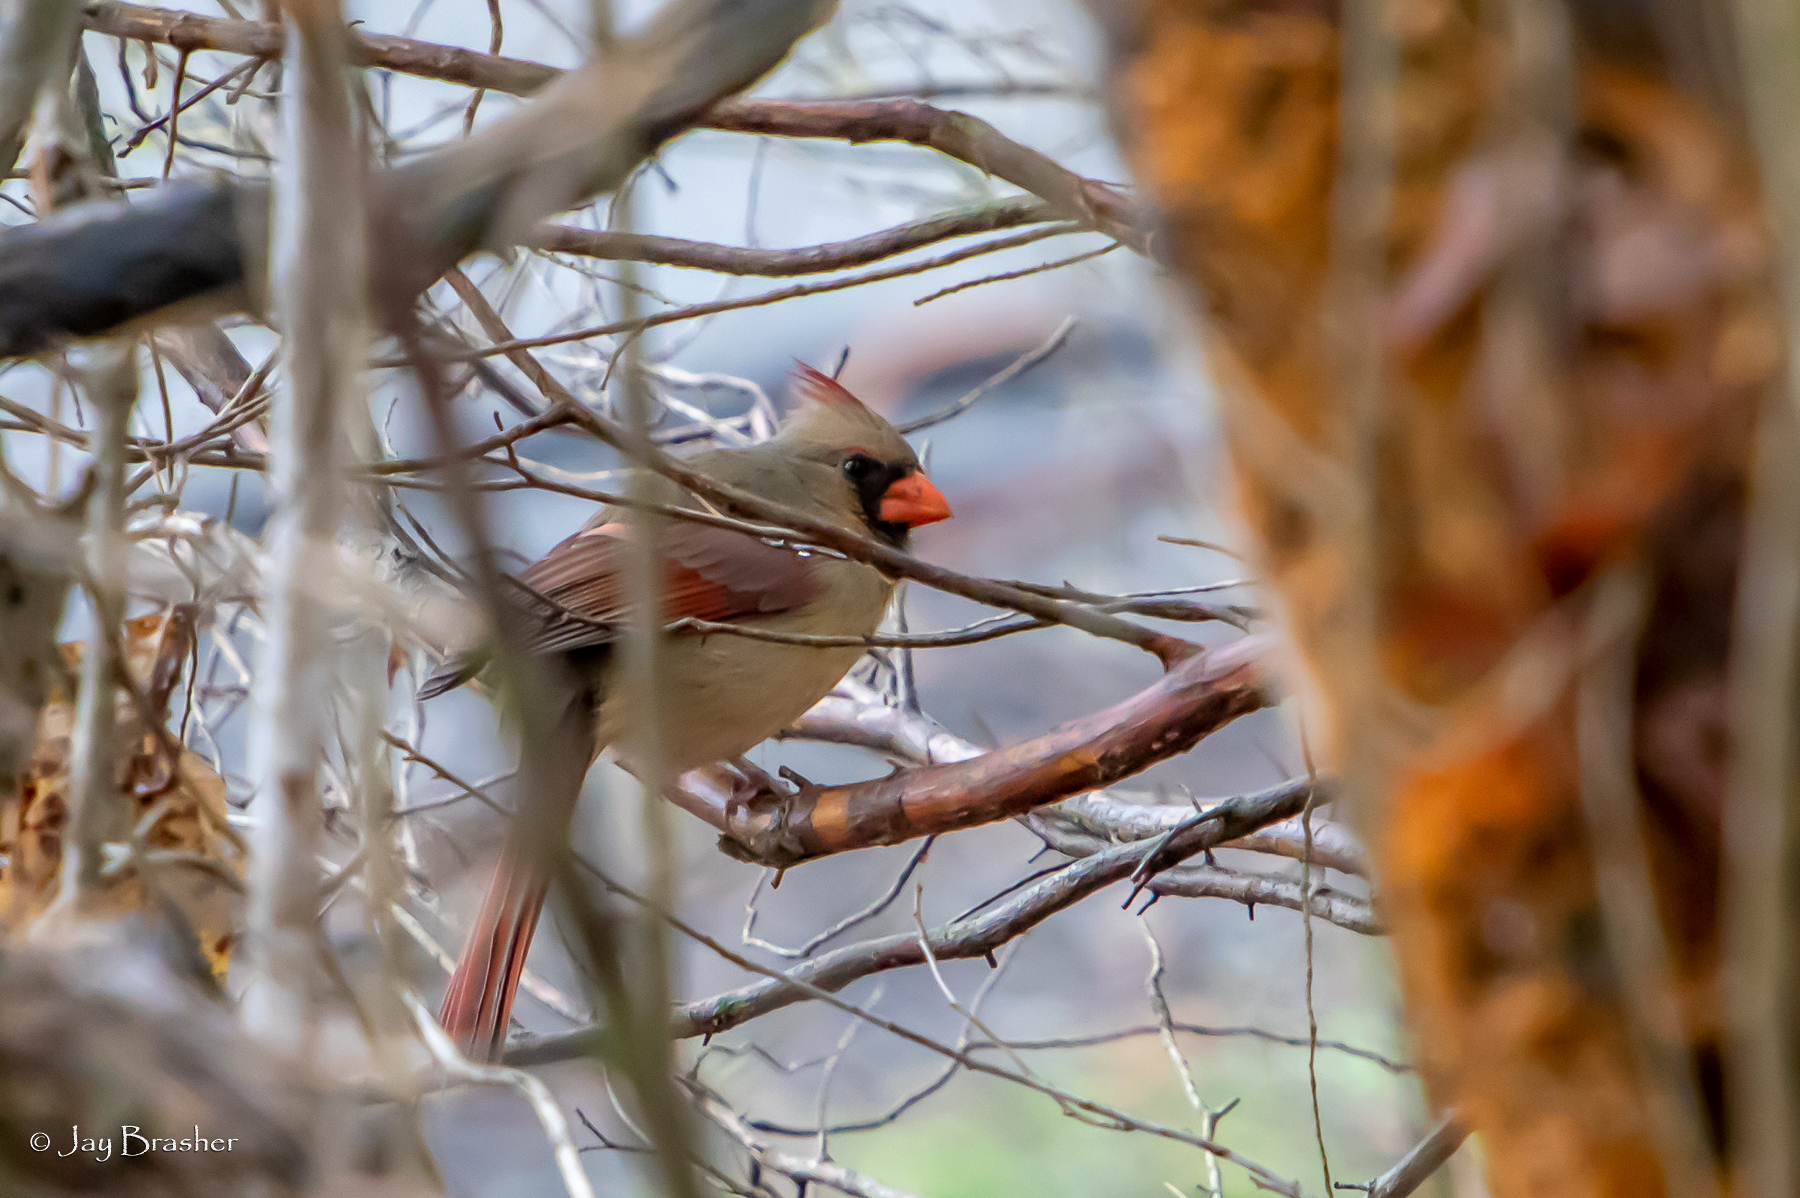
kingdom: Animalia
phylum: Chordata
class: Aves
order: Passeriformes
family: Cardinalidae
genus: Cardinalis
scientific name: Cardinalis cardinalis
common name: Northern cardinal
